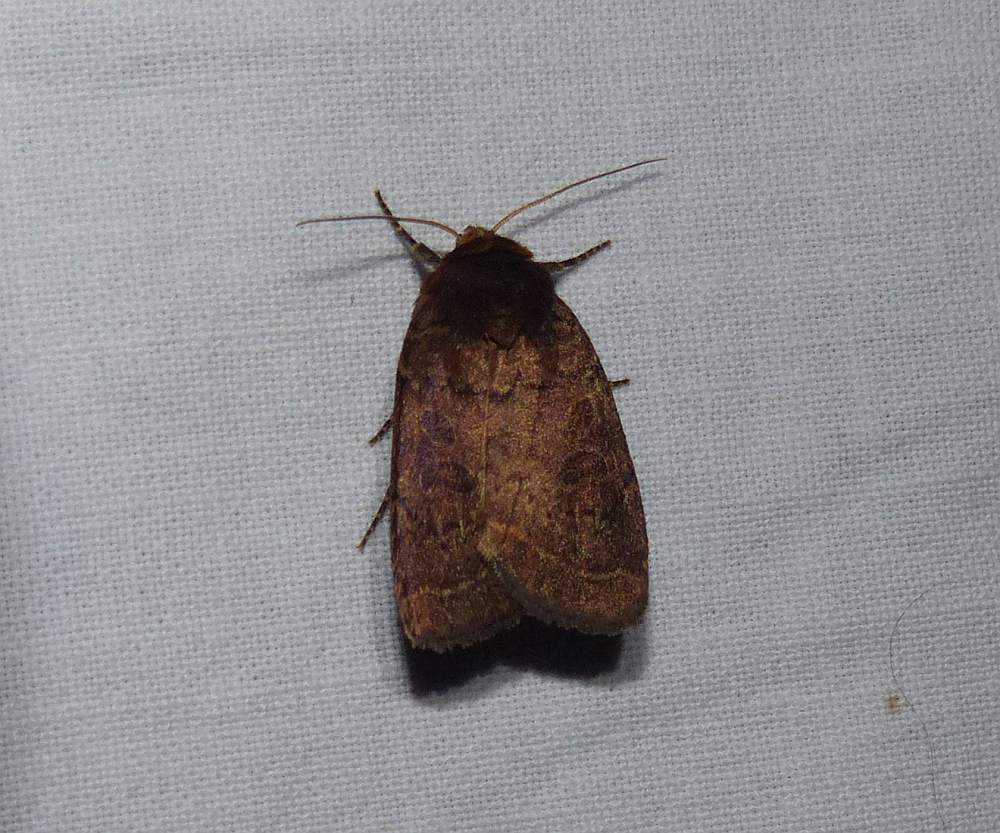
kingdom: Animalia
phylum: Arthropoda
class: Insecta
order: Lepidoptera
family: Noctuidae
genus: Orthodes
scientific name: Orthodes cynica
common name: Cynical quaker
